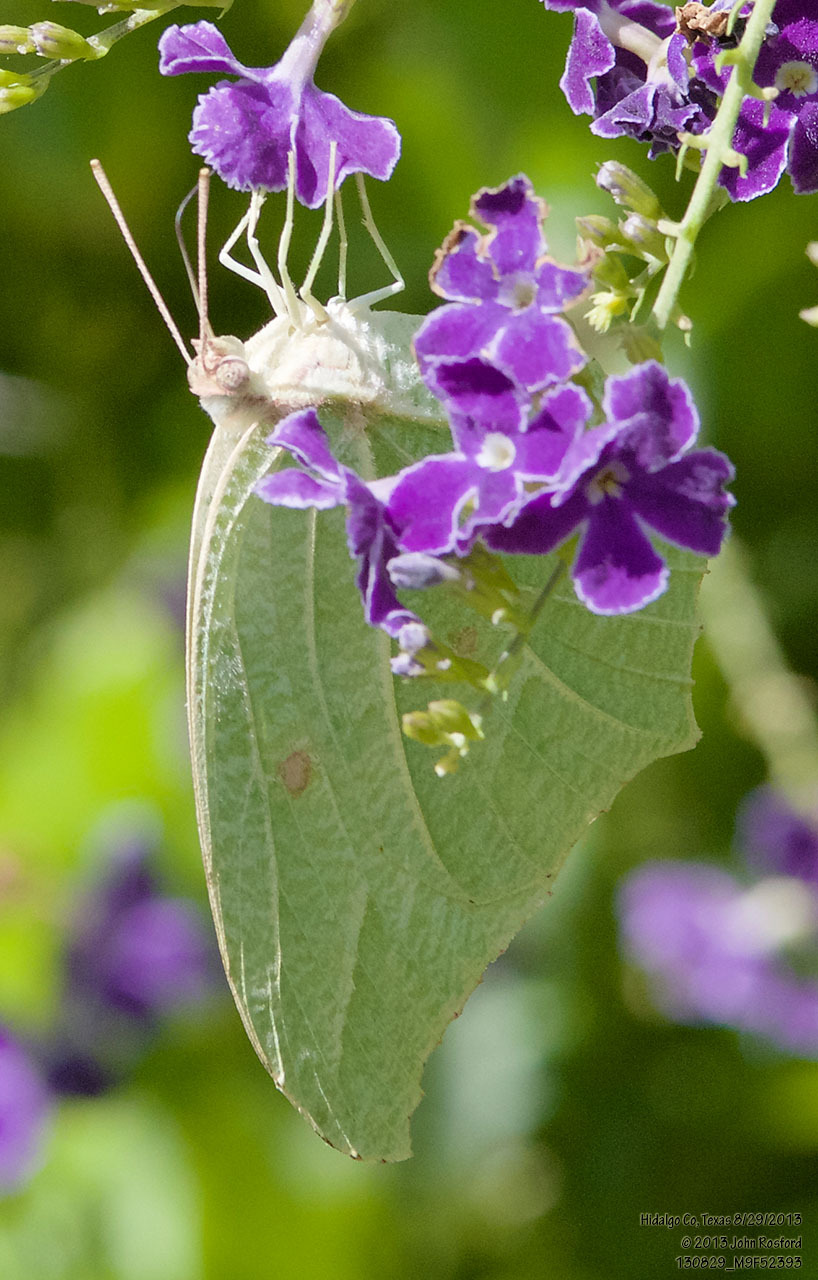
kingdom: Animalia
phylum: Arthropoda
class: Insecta
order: Lepidoptera
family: Pieridae
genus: Anteos
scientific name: Anteos clorinde
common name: White angled sulphur
